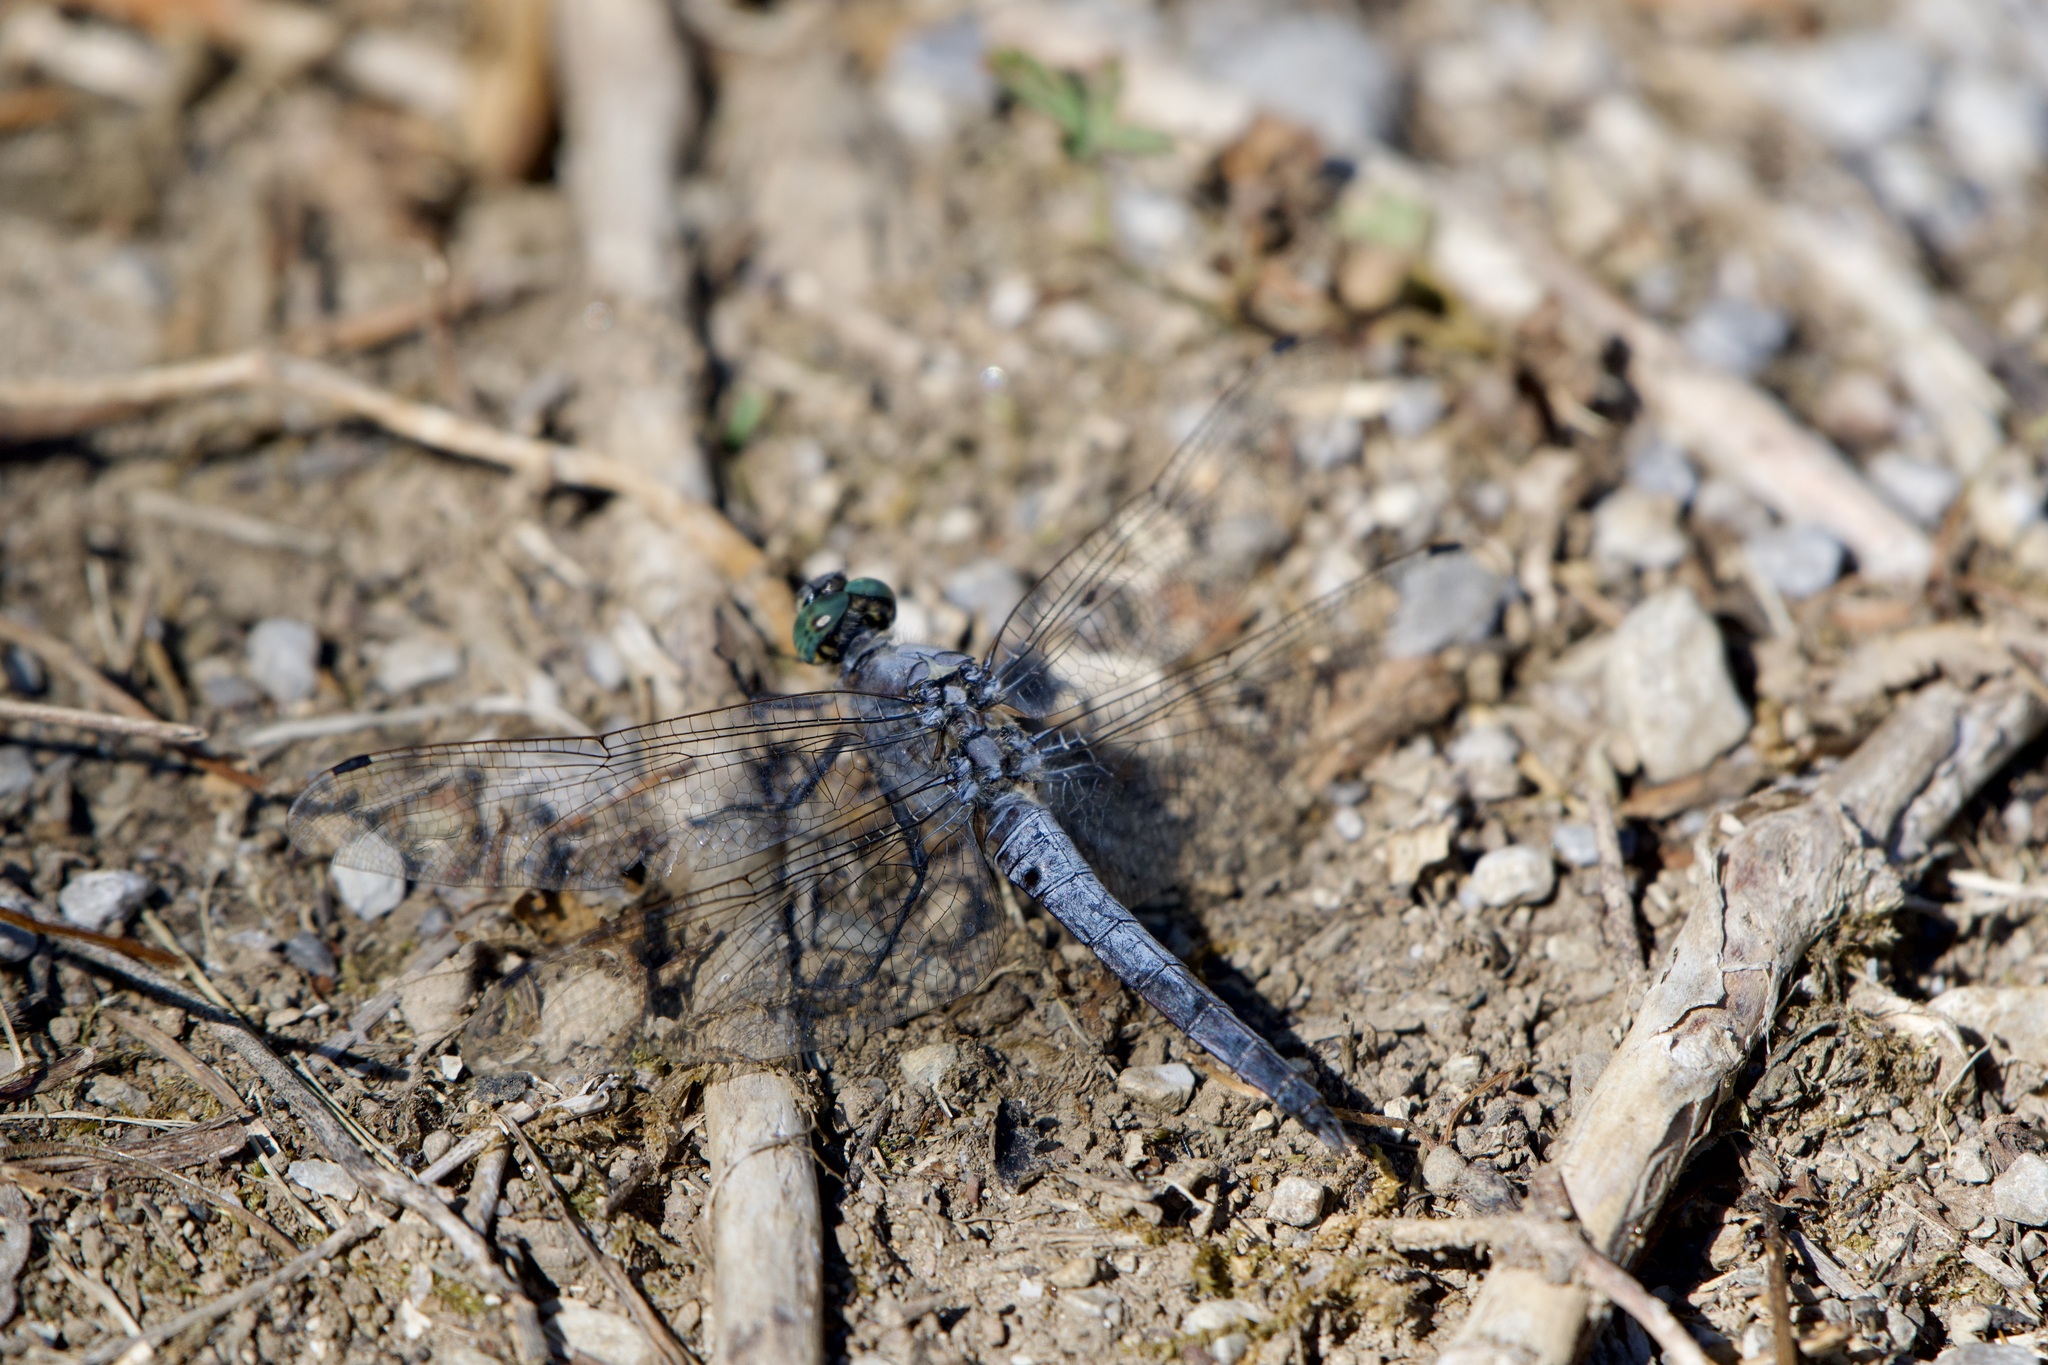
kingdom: Animalia
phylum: Arthropoda
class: Insecta
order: Odonata
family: Libellulidae
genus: Orthetrum
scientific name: Orthetrum cancellatum
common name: Black-tailed skimmer
